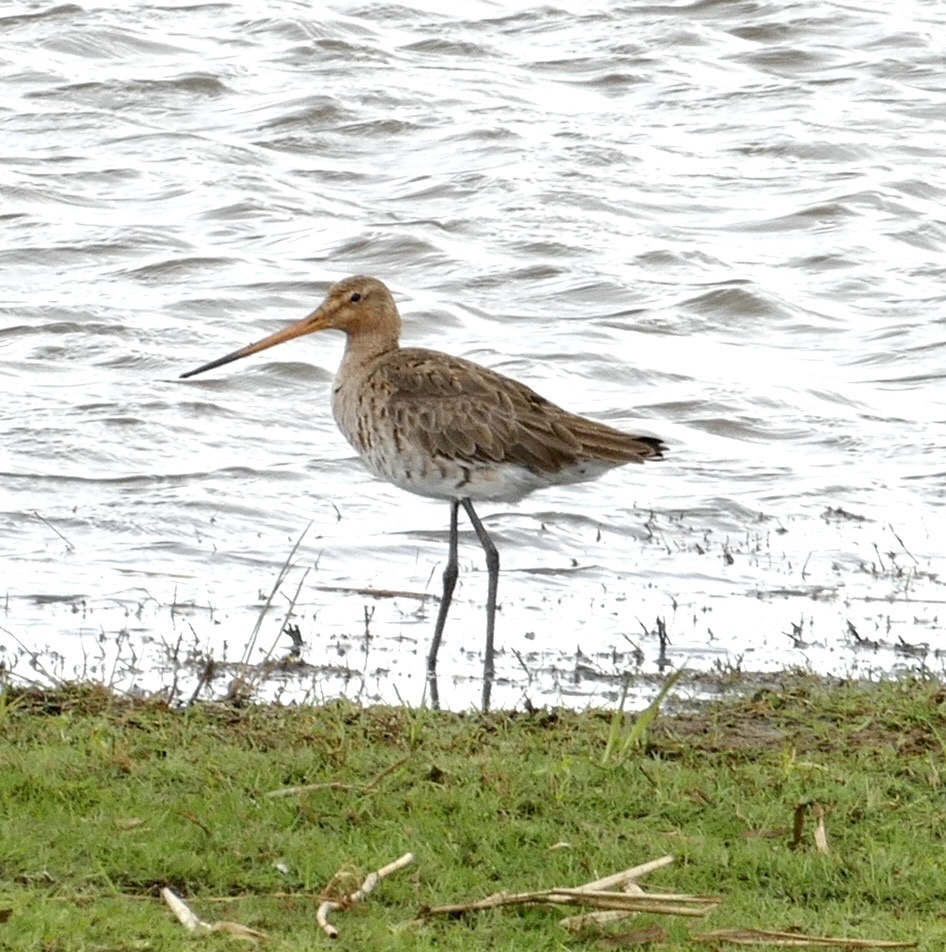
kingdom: Animalia
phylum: Chordata
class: Aves
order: Charadriiformes
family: Scolopacidae
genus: Limosa
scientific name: Limosa limosa
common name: Black-tailed godwit
